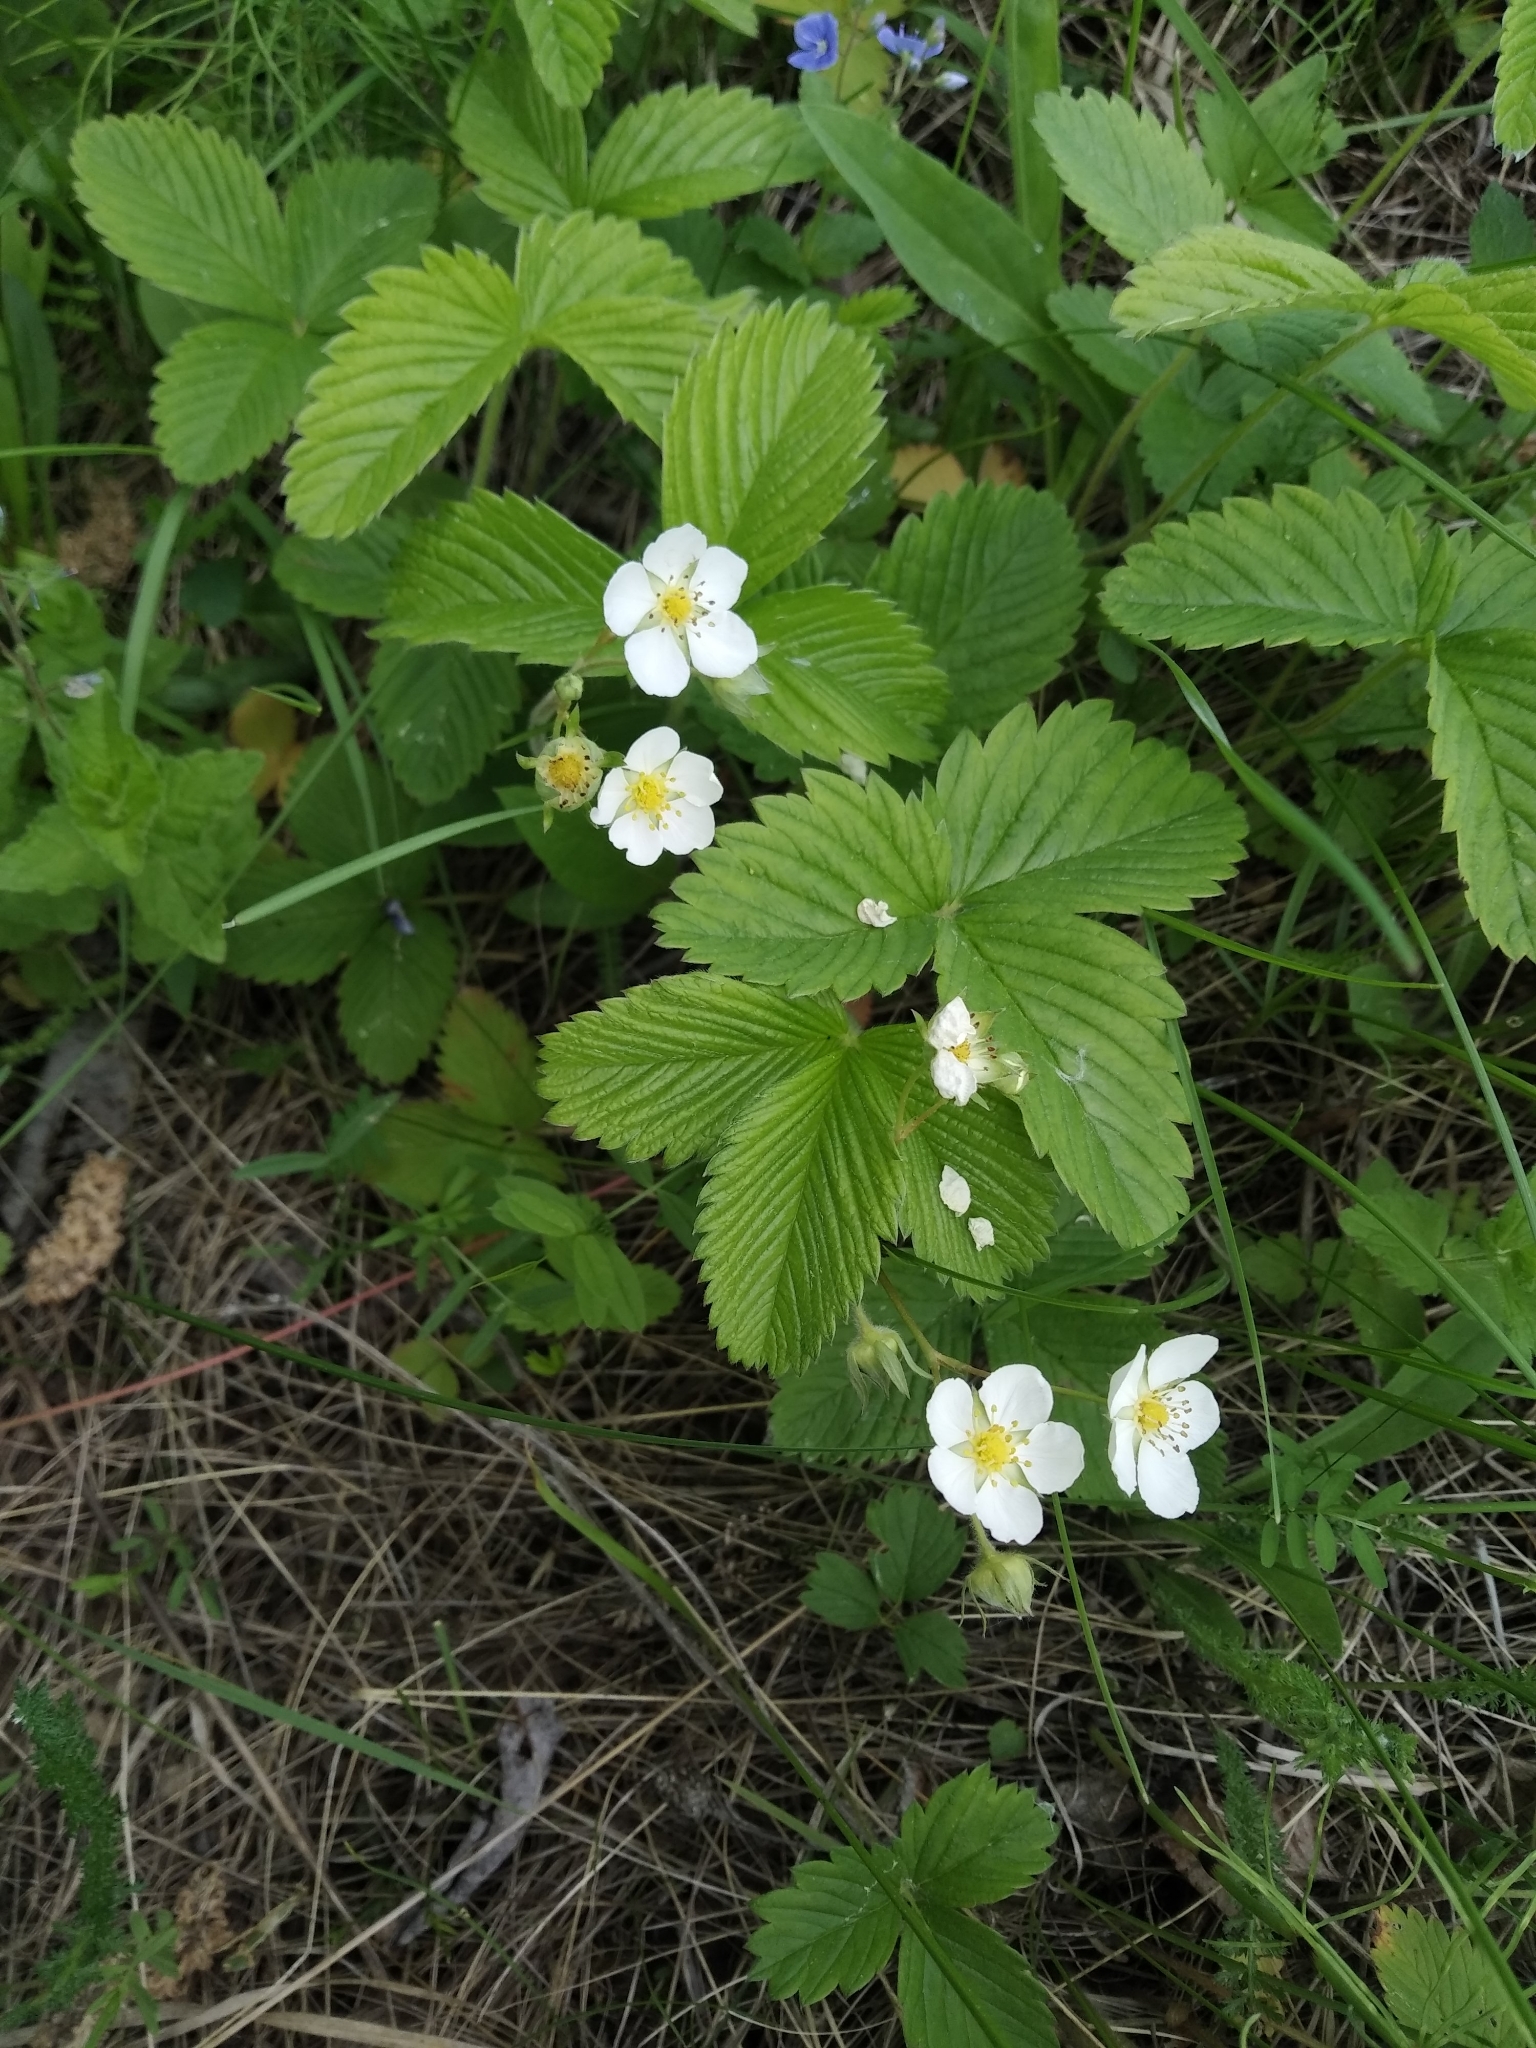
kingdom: Plantae
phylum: Tracheophyta
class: Magnoliopsida
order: Rosales
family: Rosaceae
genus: Fragaria
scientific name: Fragaria viridis
